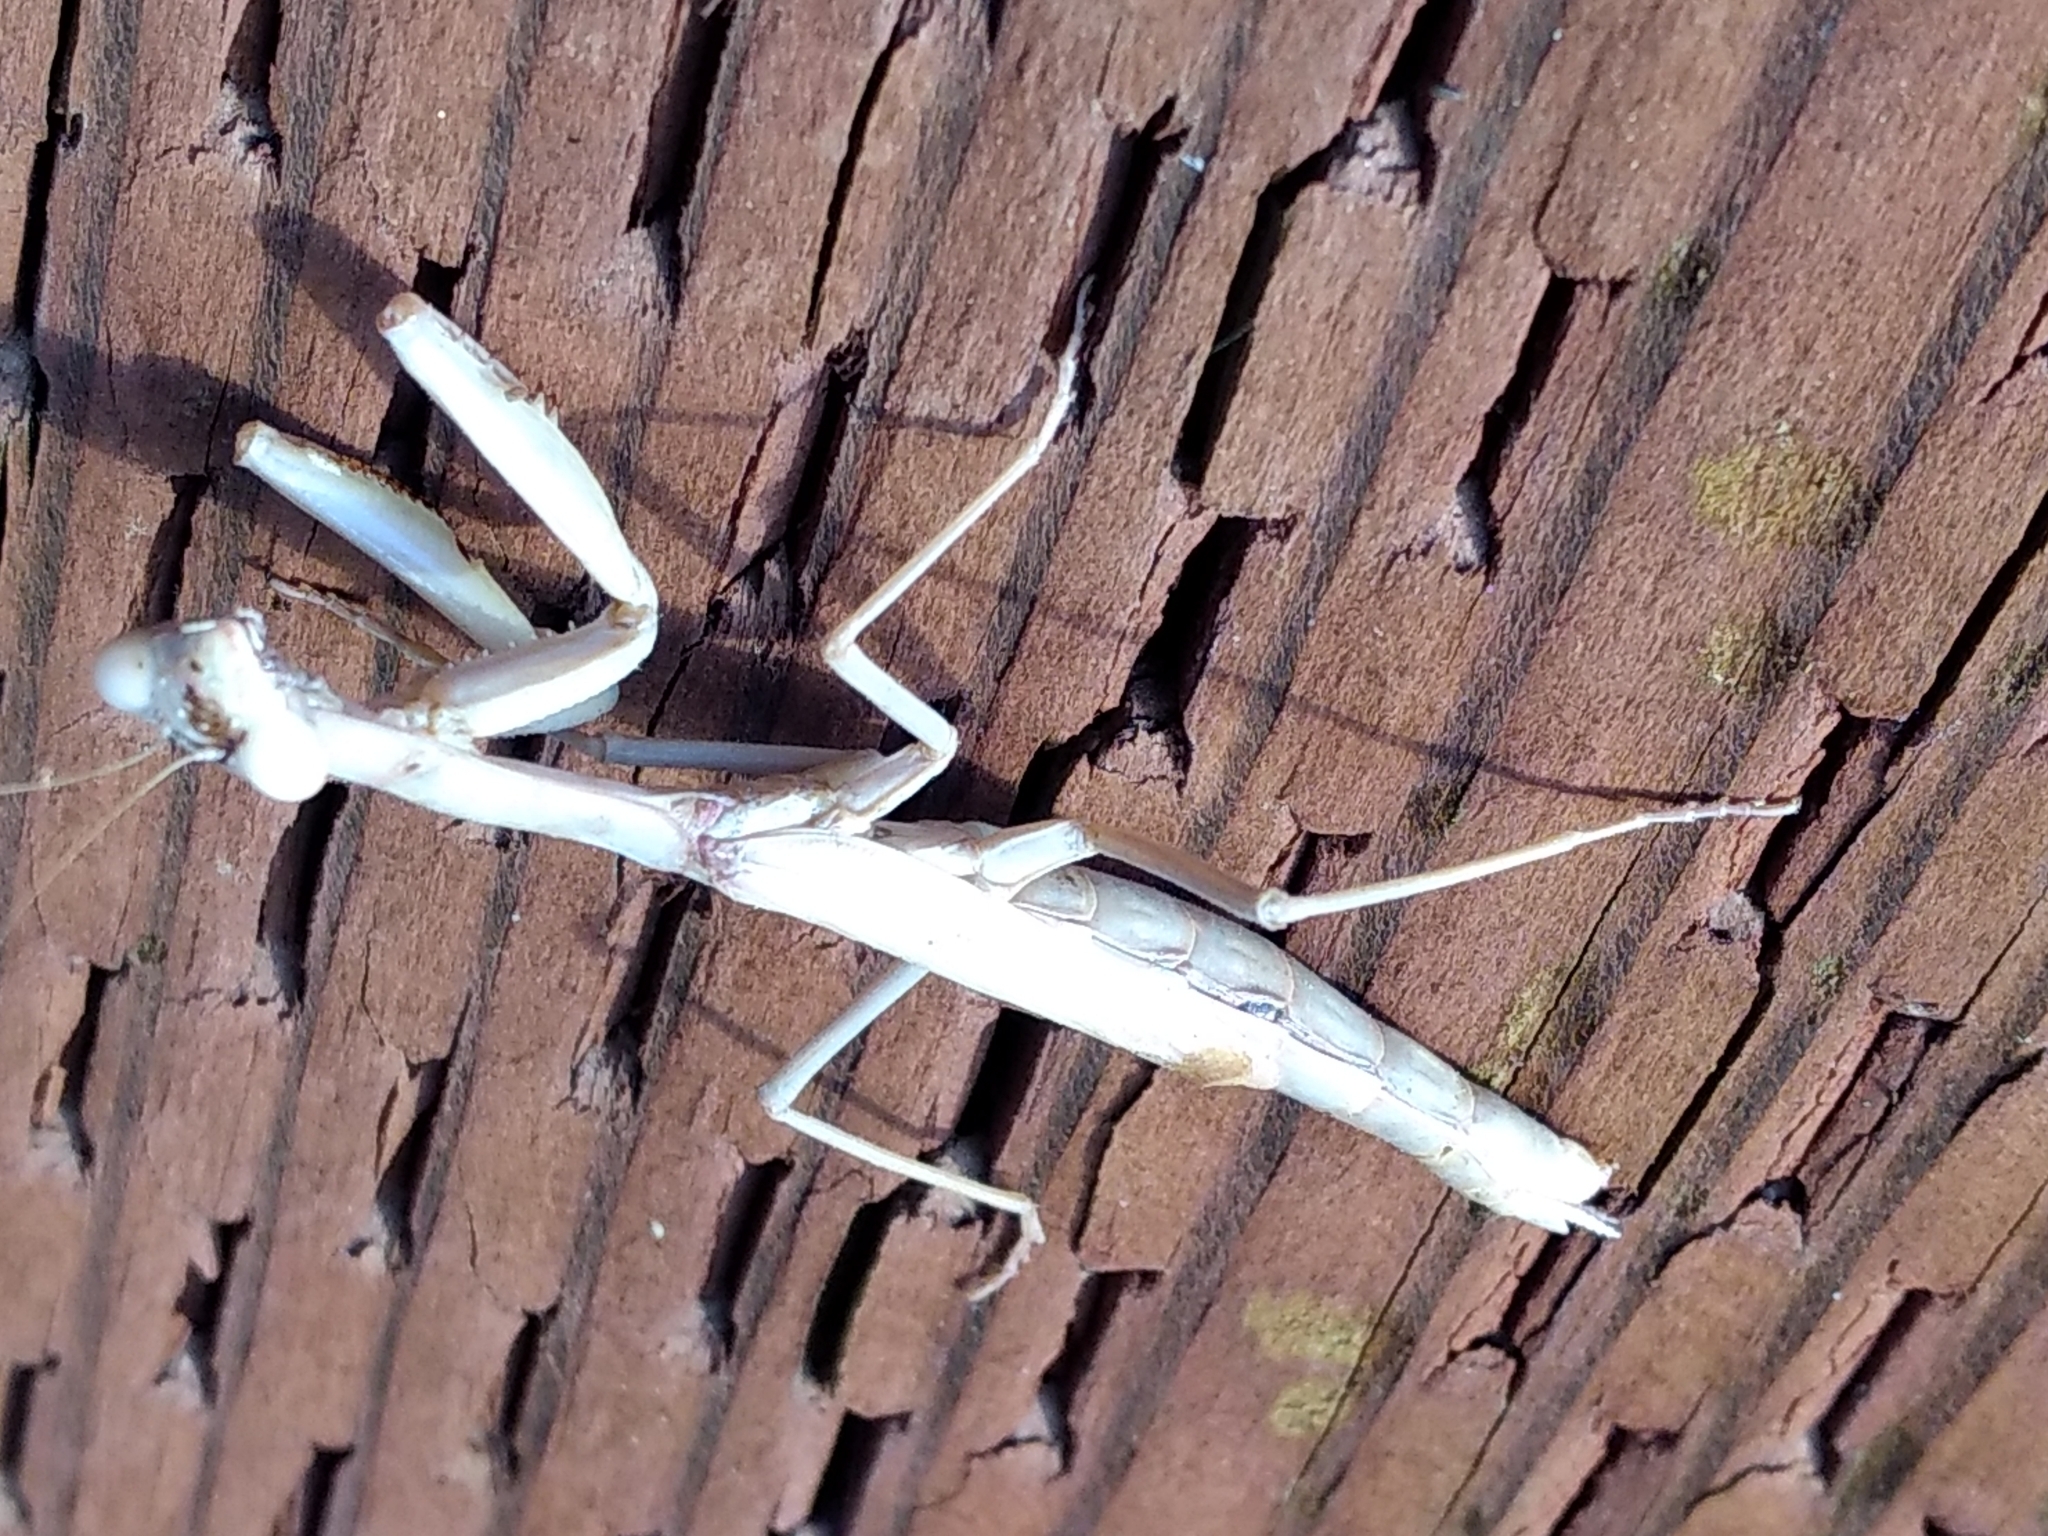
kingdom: Animalia
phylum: Arthropoda
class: Insecta
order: Mantodea
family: Eremiaphilidae
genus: Iris
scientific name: Iris oratoria
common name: Mediterranean mantis
